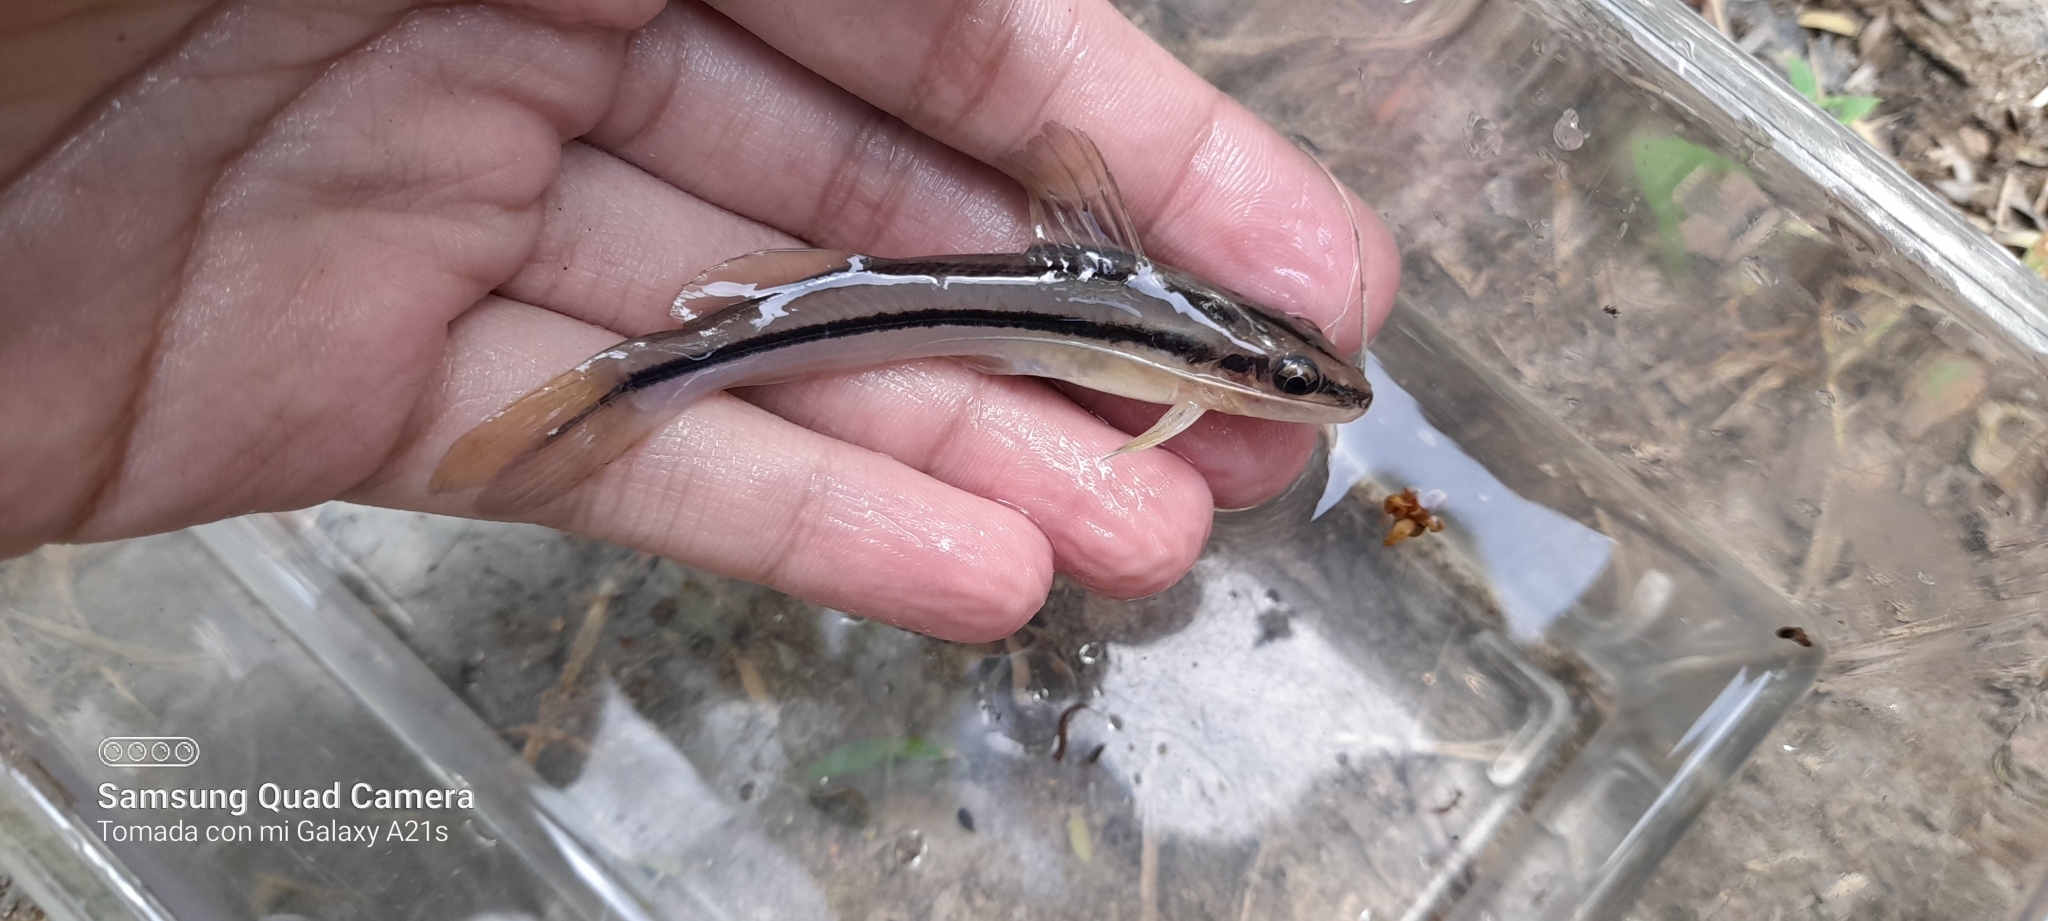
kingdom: Animalia
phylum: Chordata
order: Siluriformes
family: Heptapteridae
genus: Pimelodella
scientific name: Pimelodella chagresi
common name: Catfish
